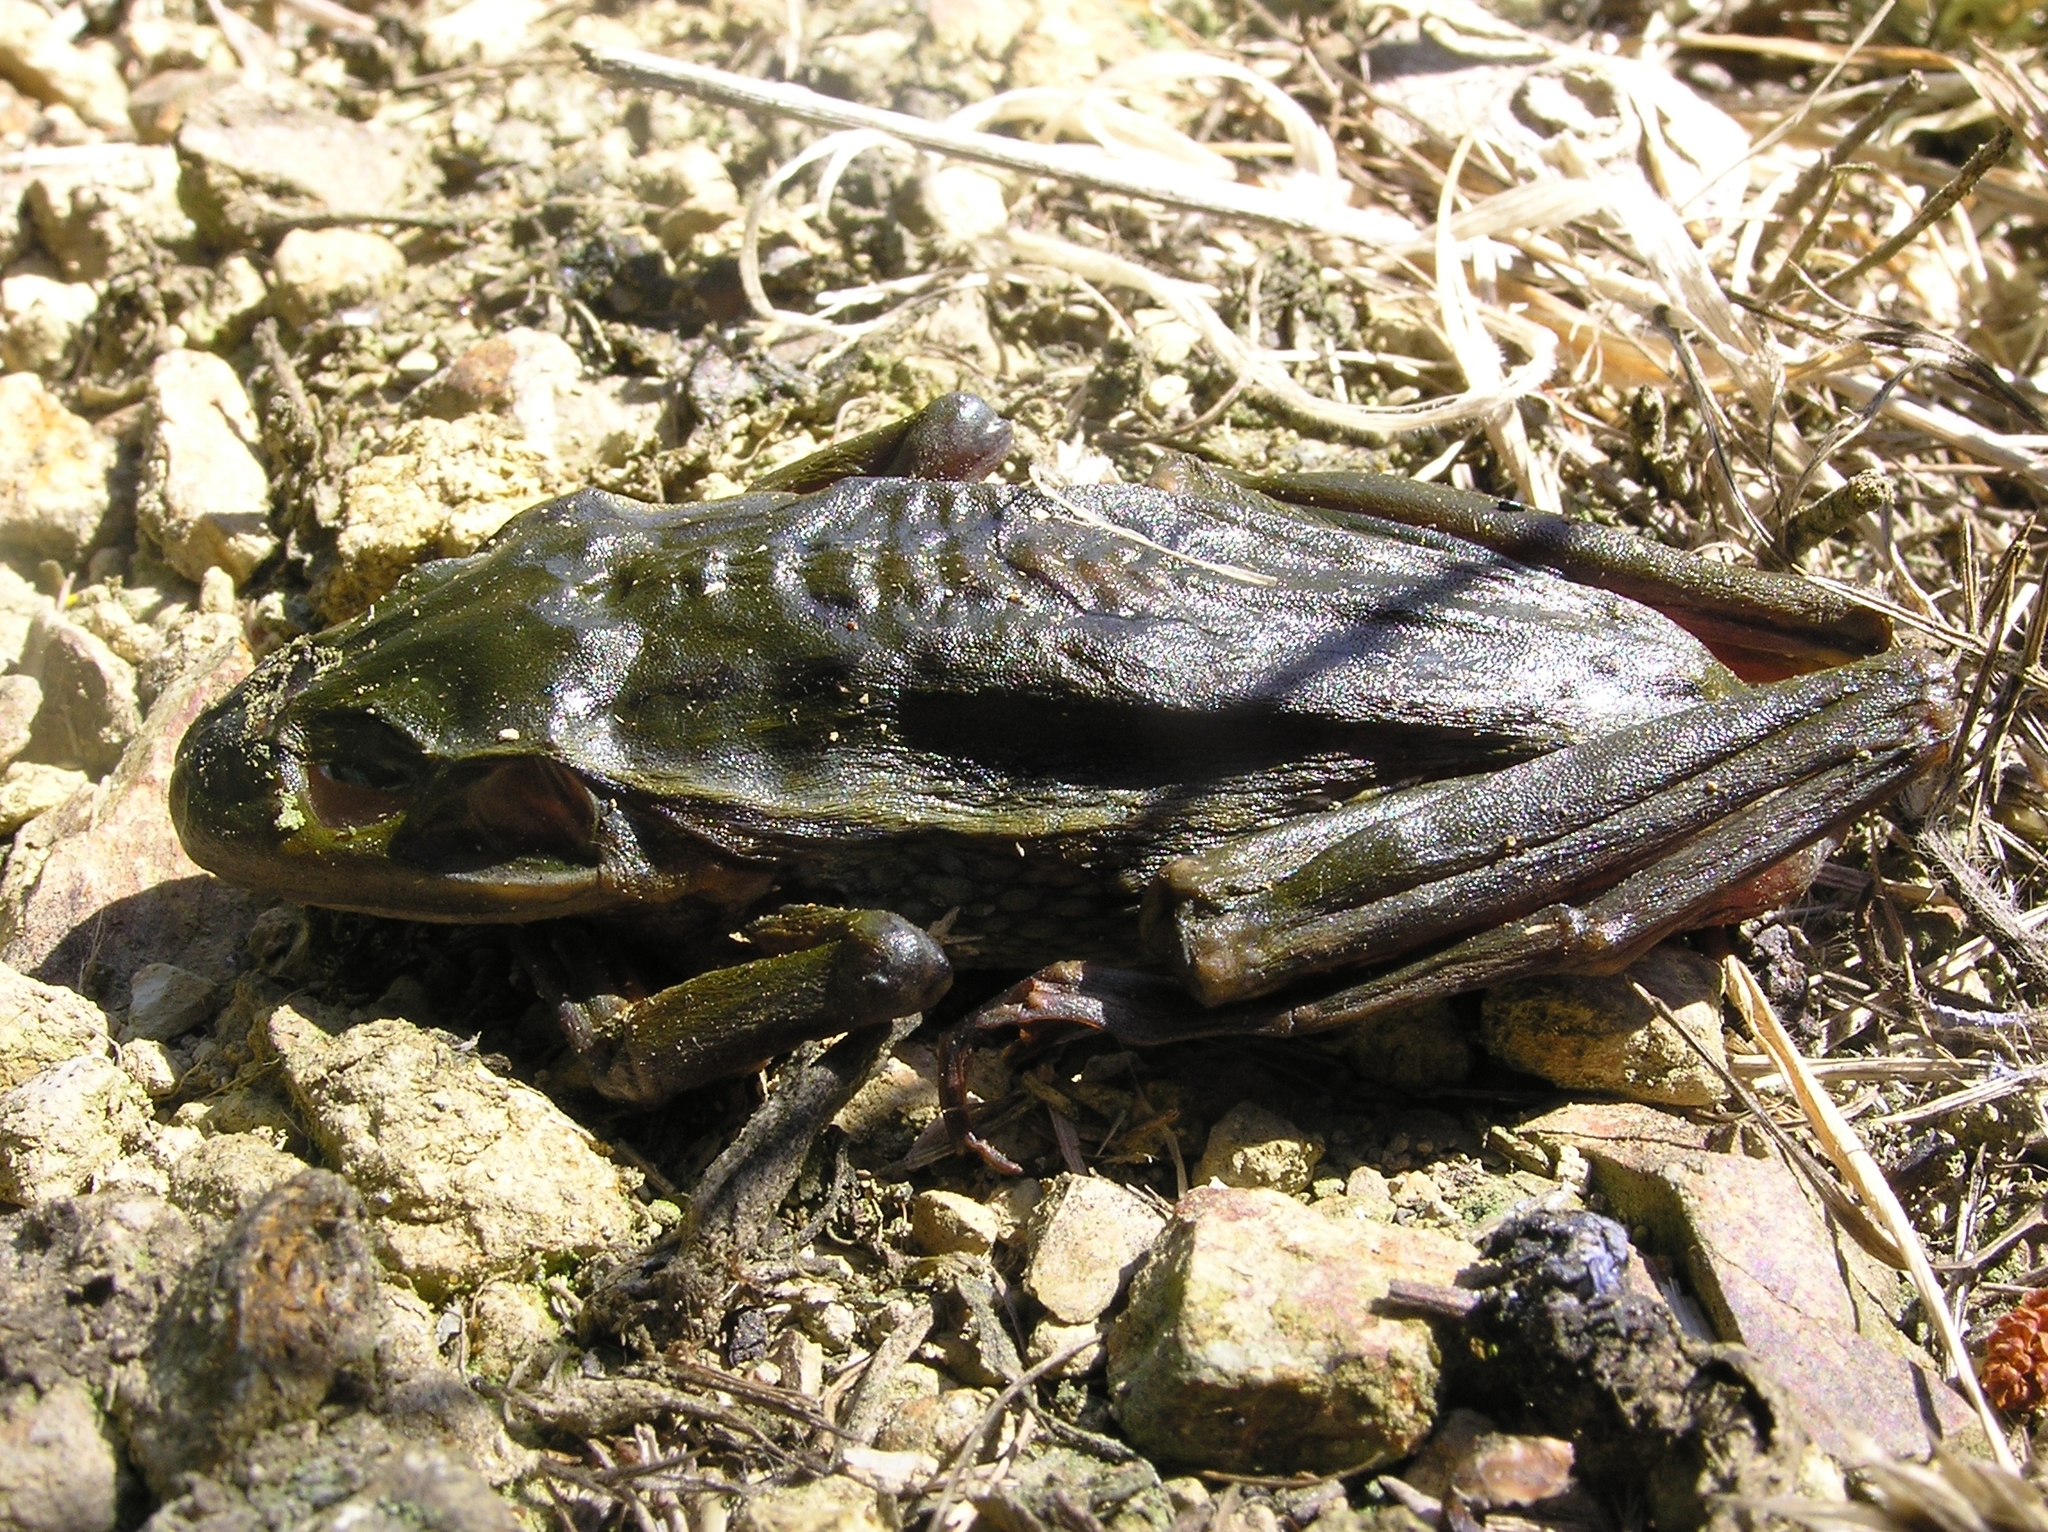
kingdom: Animalia
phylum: Chordata
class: Amphibia
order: Anura
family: Pelodryadidae
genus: Ranoidea
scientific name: Ranoidea raniformis
